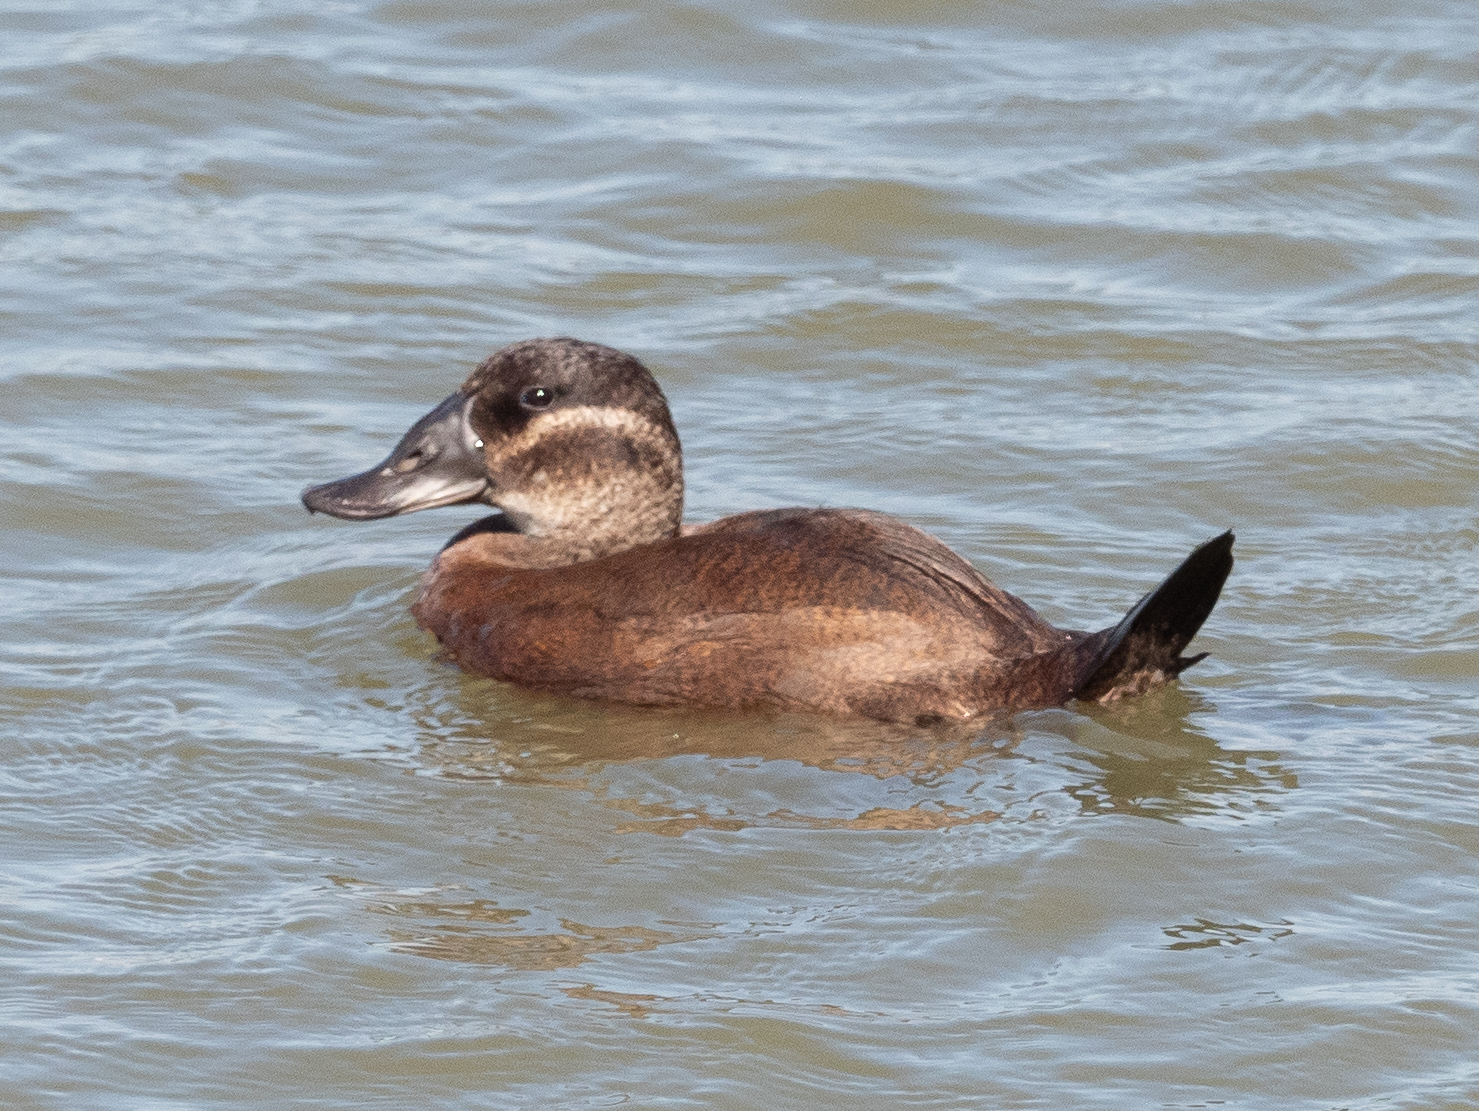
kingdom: Animalia
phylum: Chordata
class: Aves
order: Anseriformes
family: Anatidae
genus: Oxyura
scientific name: Oxyura leucocephala
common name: White-headed duck
